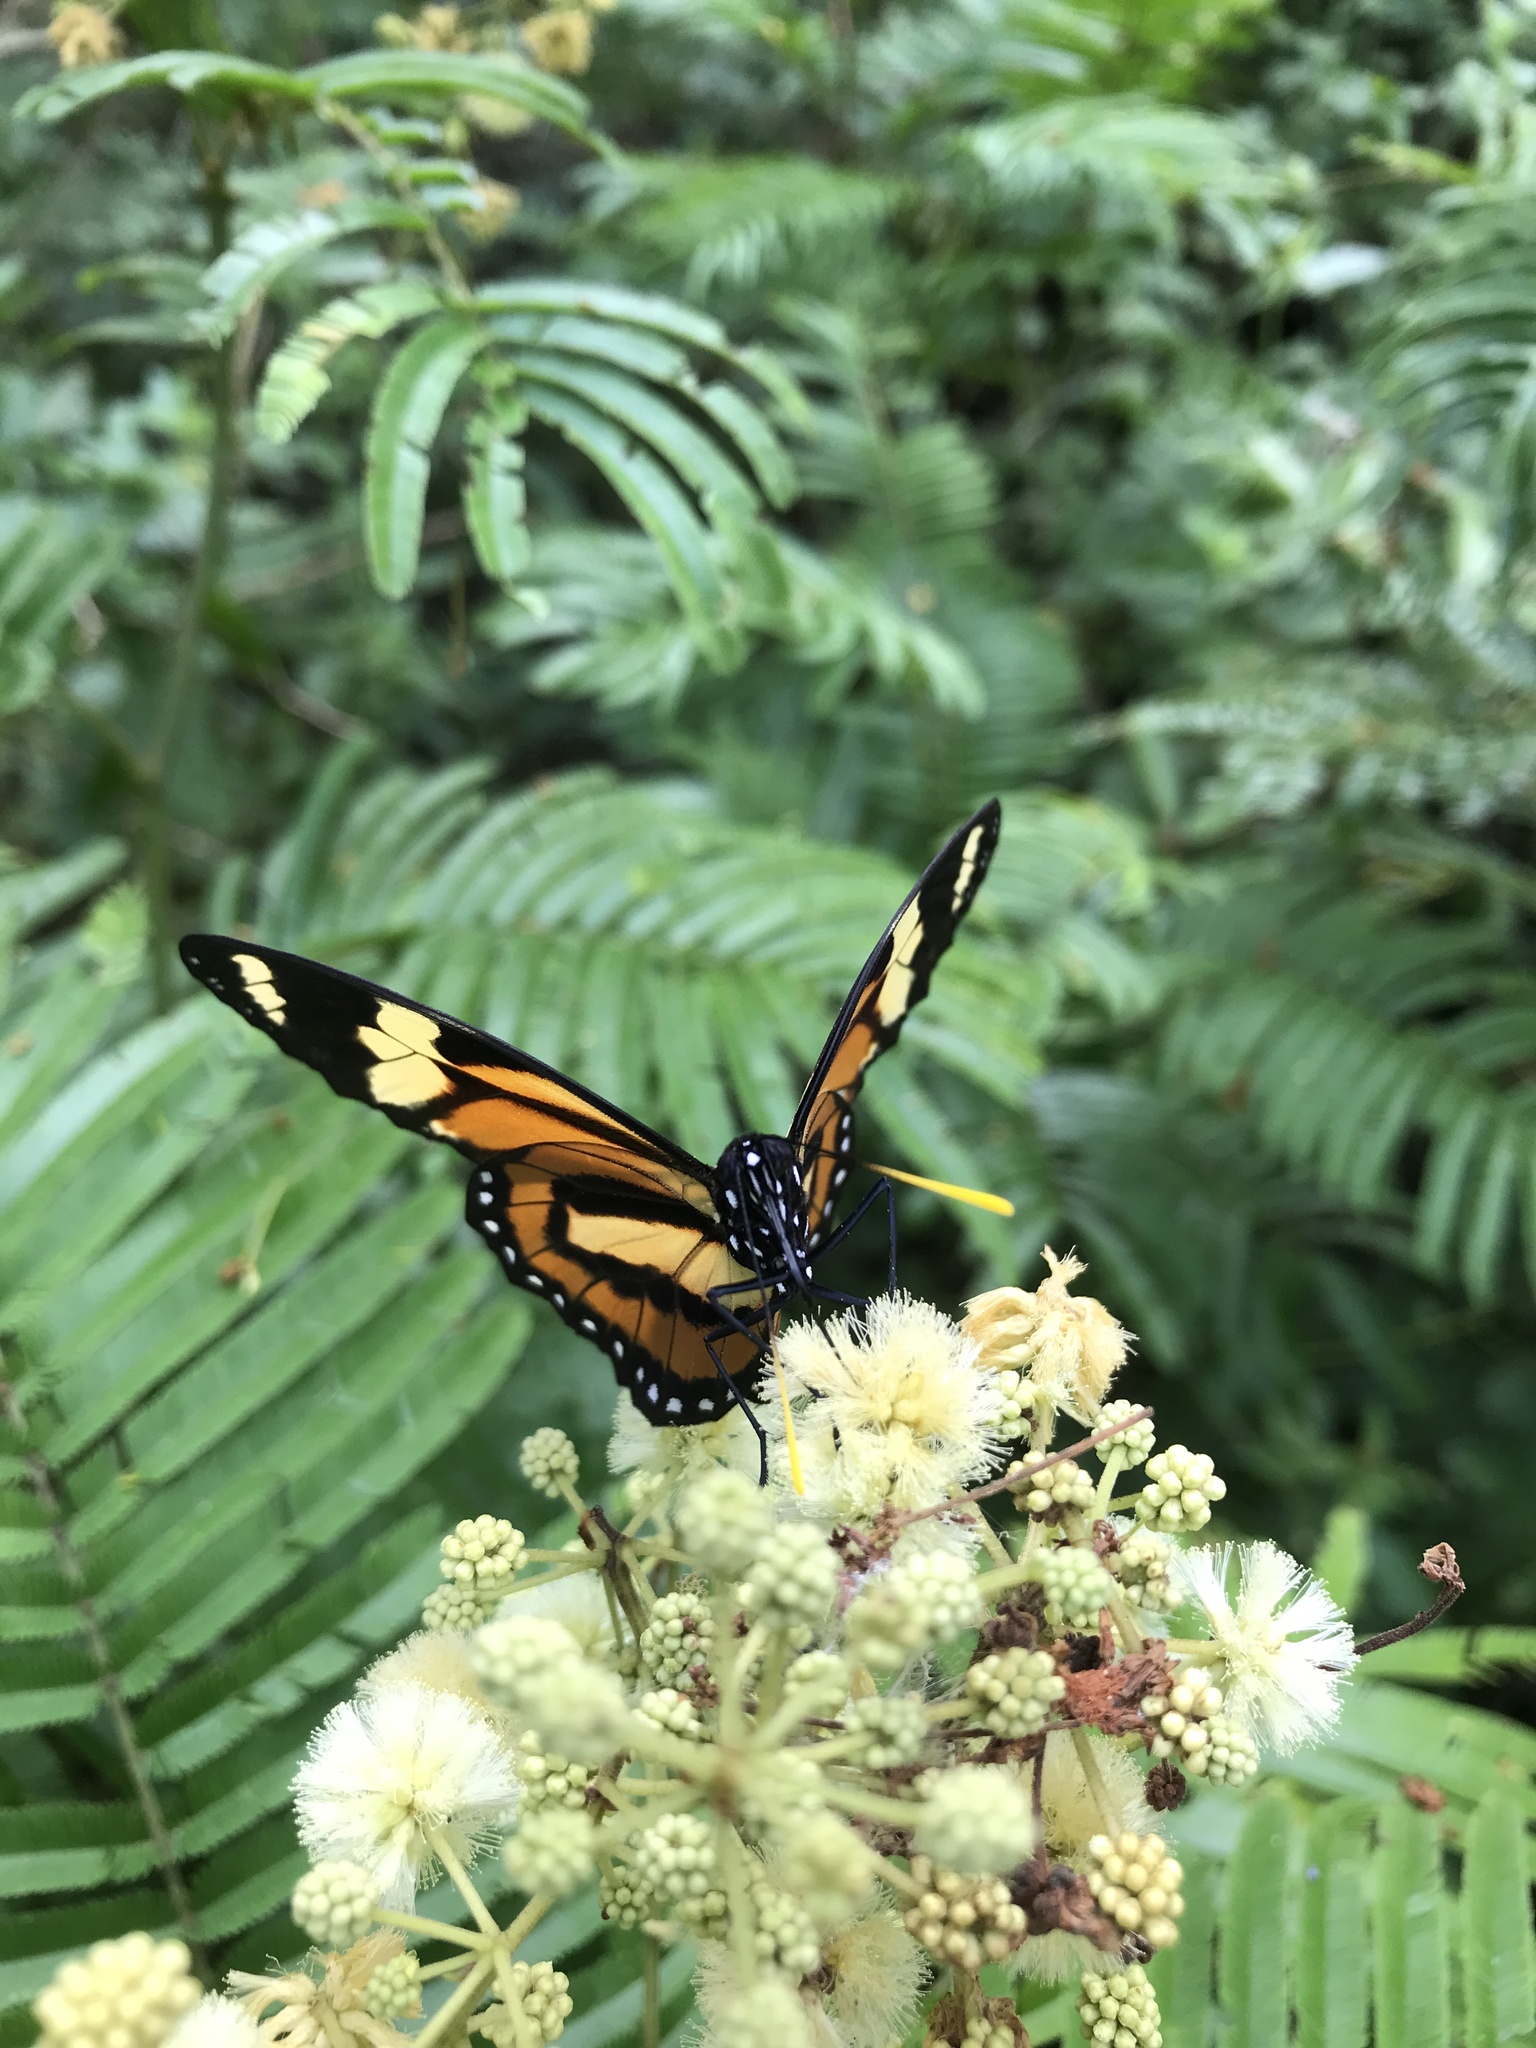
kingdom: Animalia
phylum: Arthropoda
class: Insecta
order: Lepidoptera
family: Nymphalidae
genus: Lycorea
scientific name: Lycorea cleobaea
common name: Tiger mimic-queen
